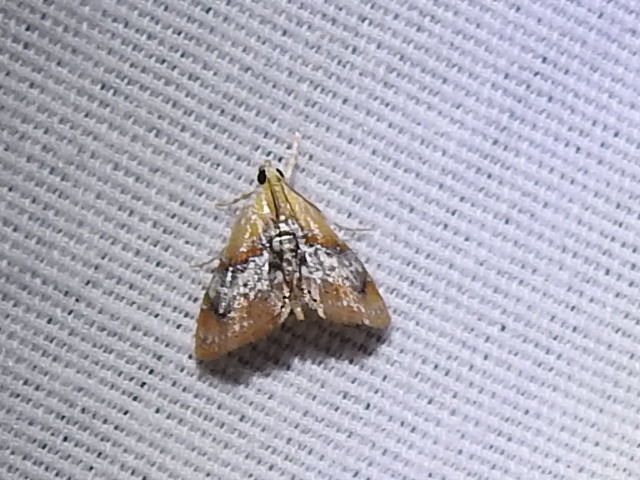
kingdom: Animalia
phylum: Arthropoda
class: Insecta
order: Lepidoptera
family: Crambidae
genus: Dicymolomia
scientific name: Dicymolomia julianalis
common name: Julia's dicymolomia moth
